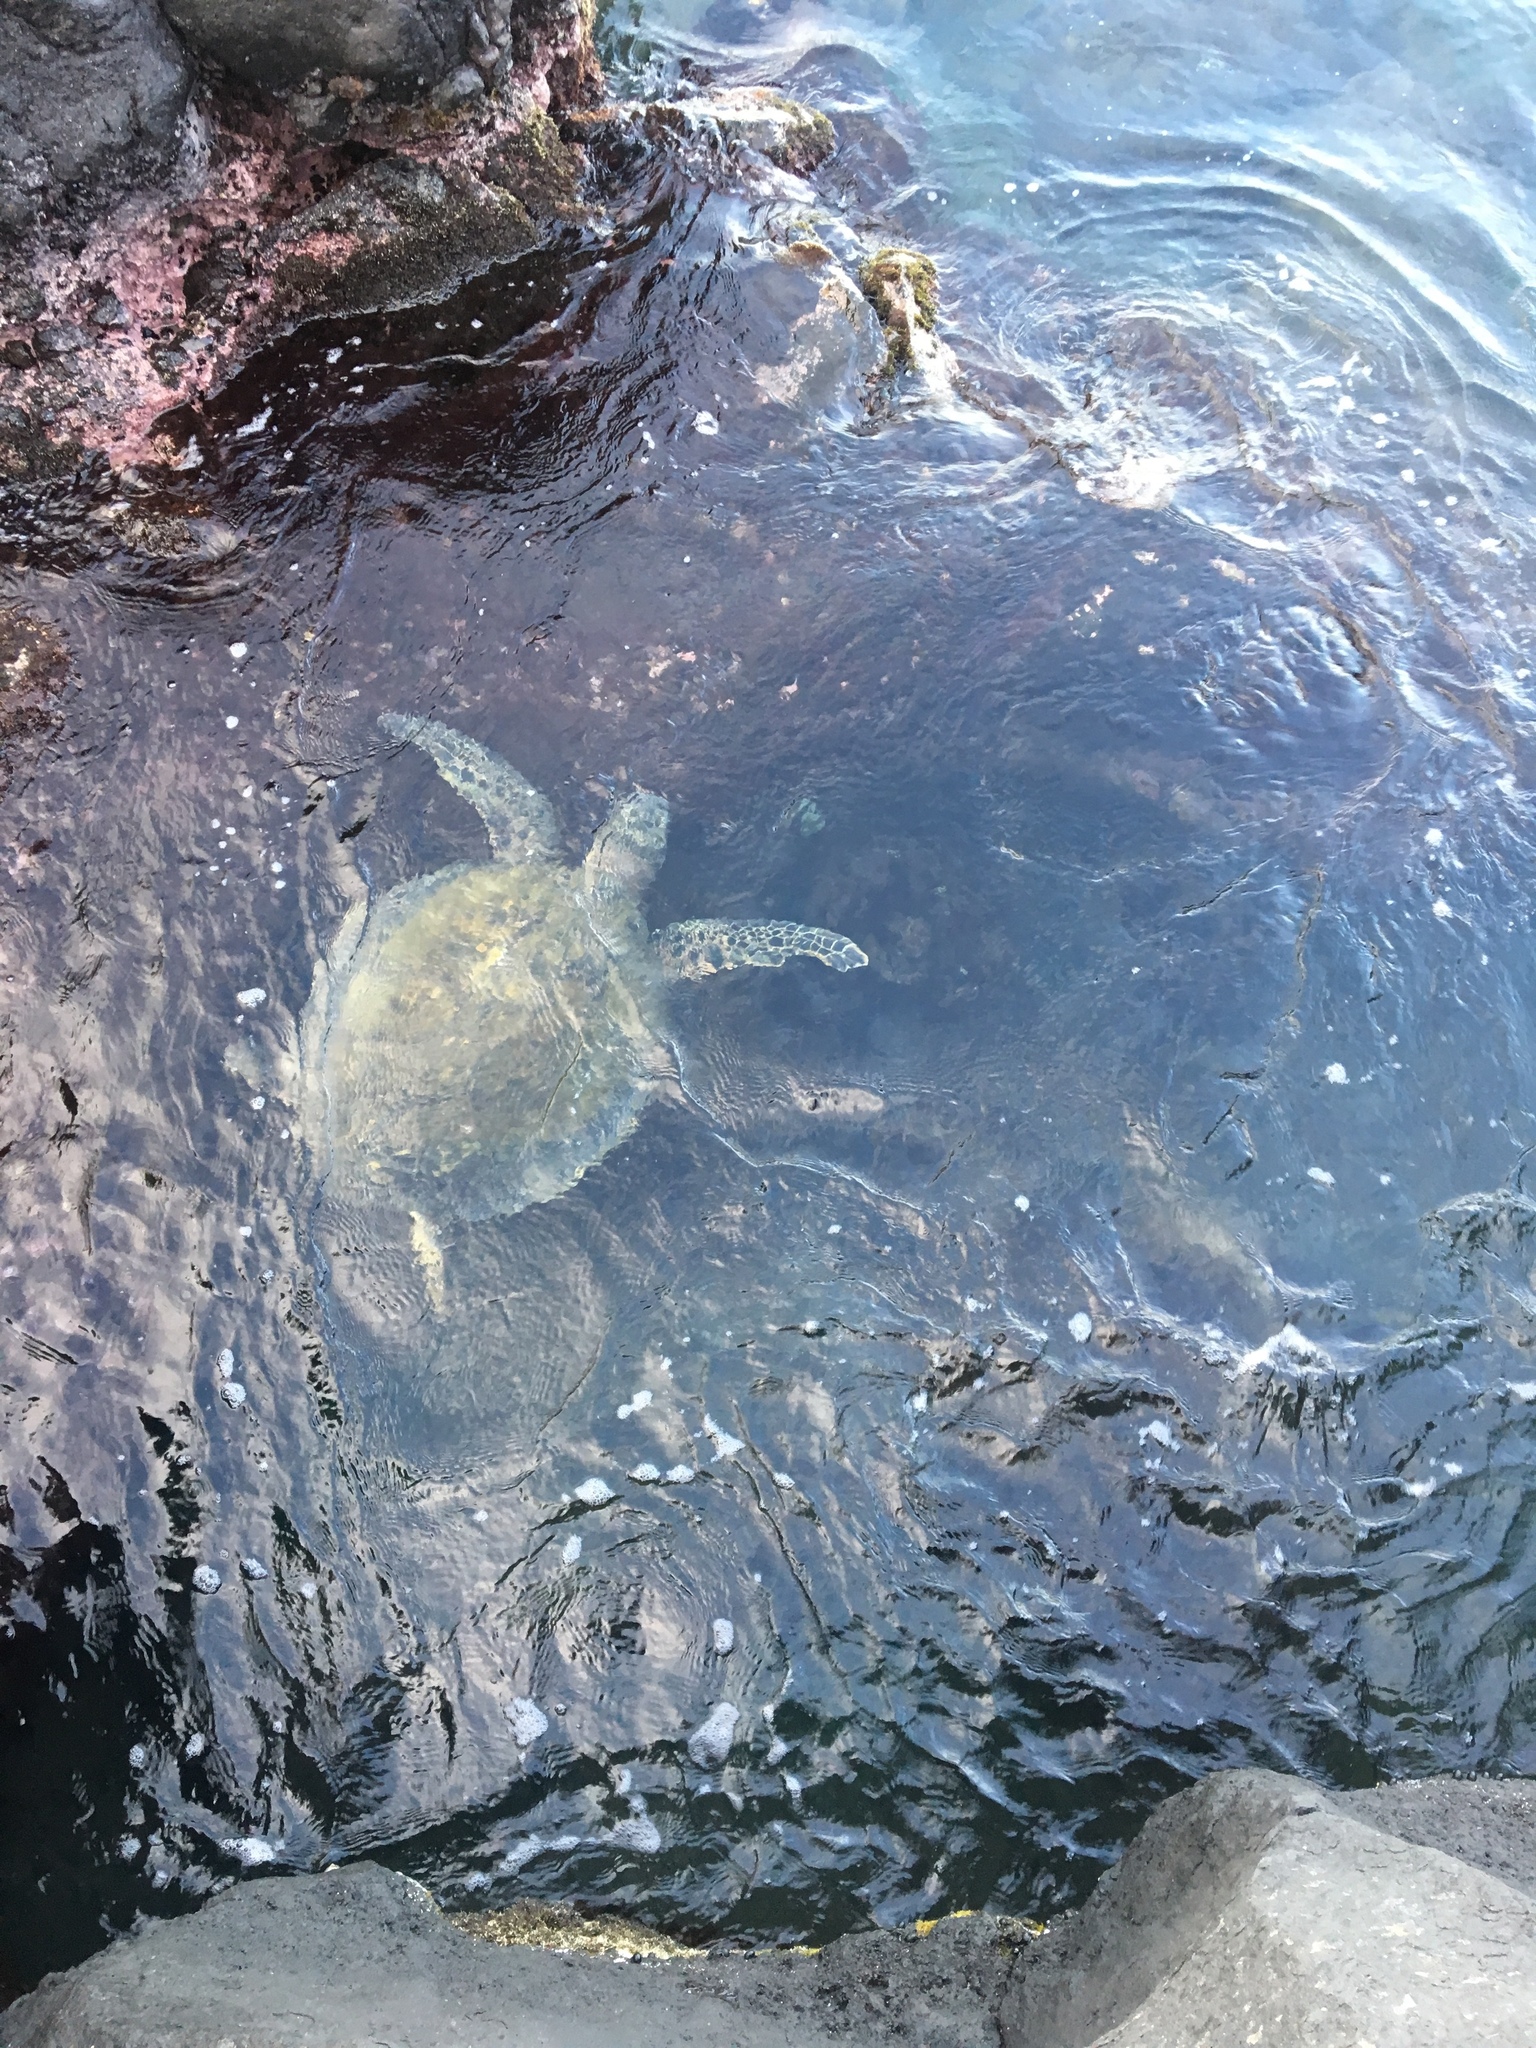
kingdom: Animalia
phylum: Chordata
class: Testudines
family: Cheloniidae
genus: Chelonia
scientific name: Chelonia mydas
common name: Green turtle
